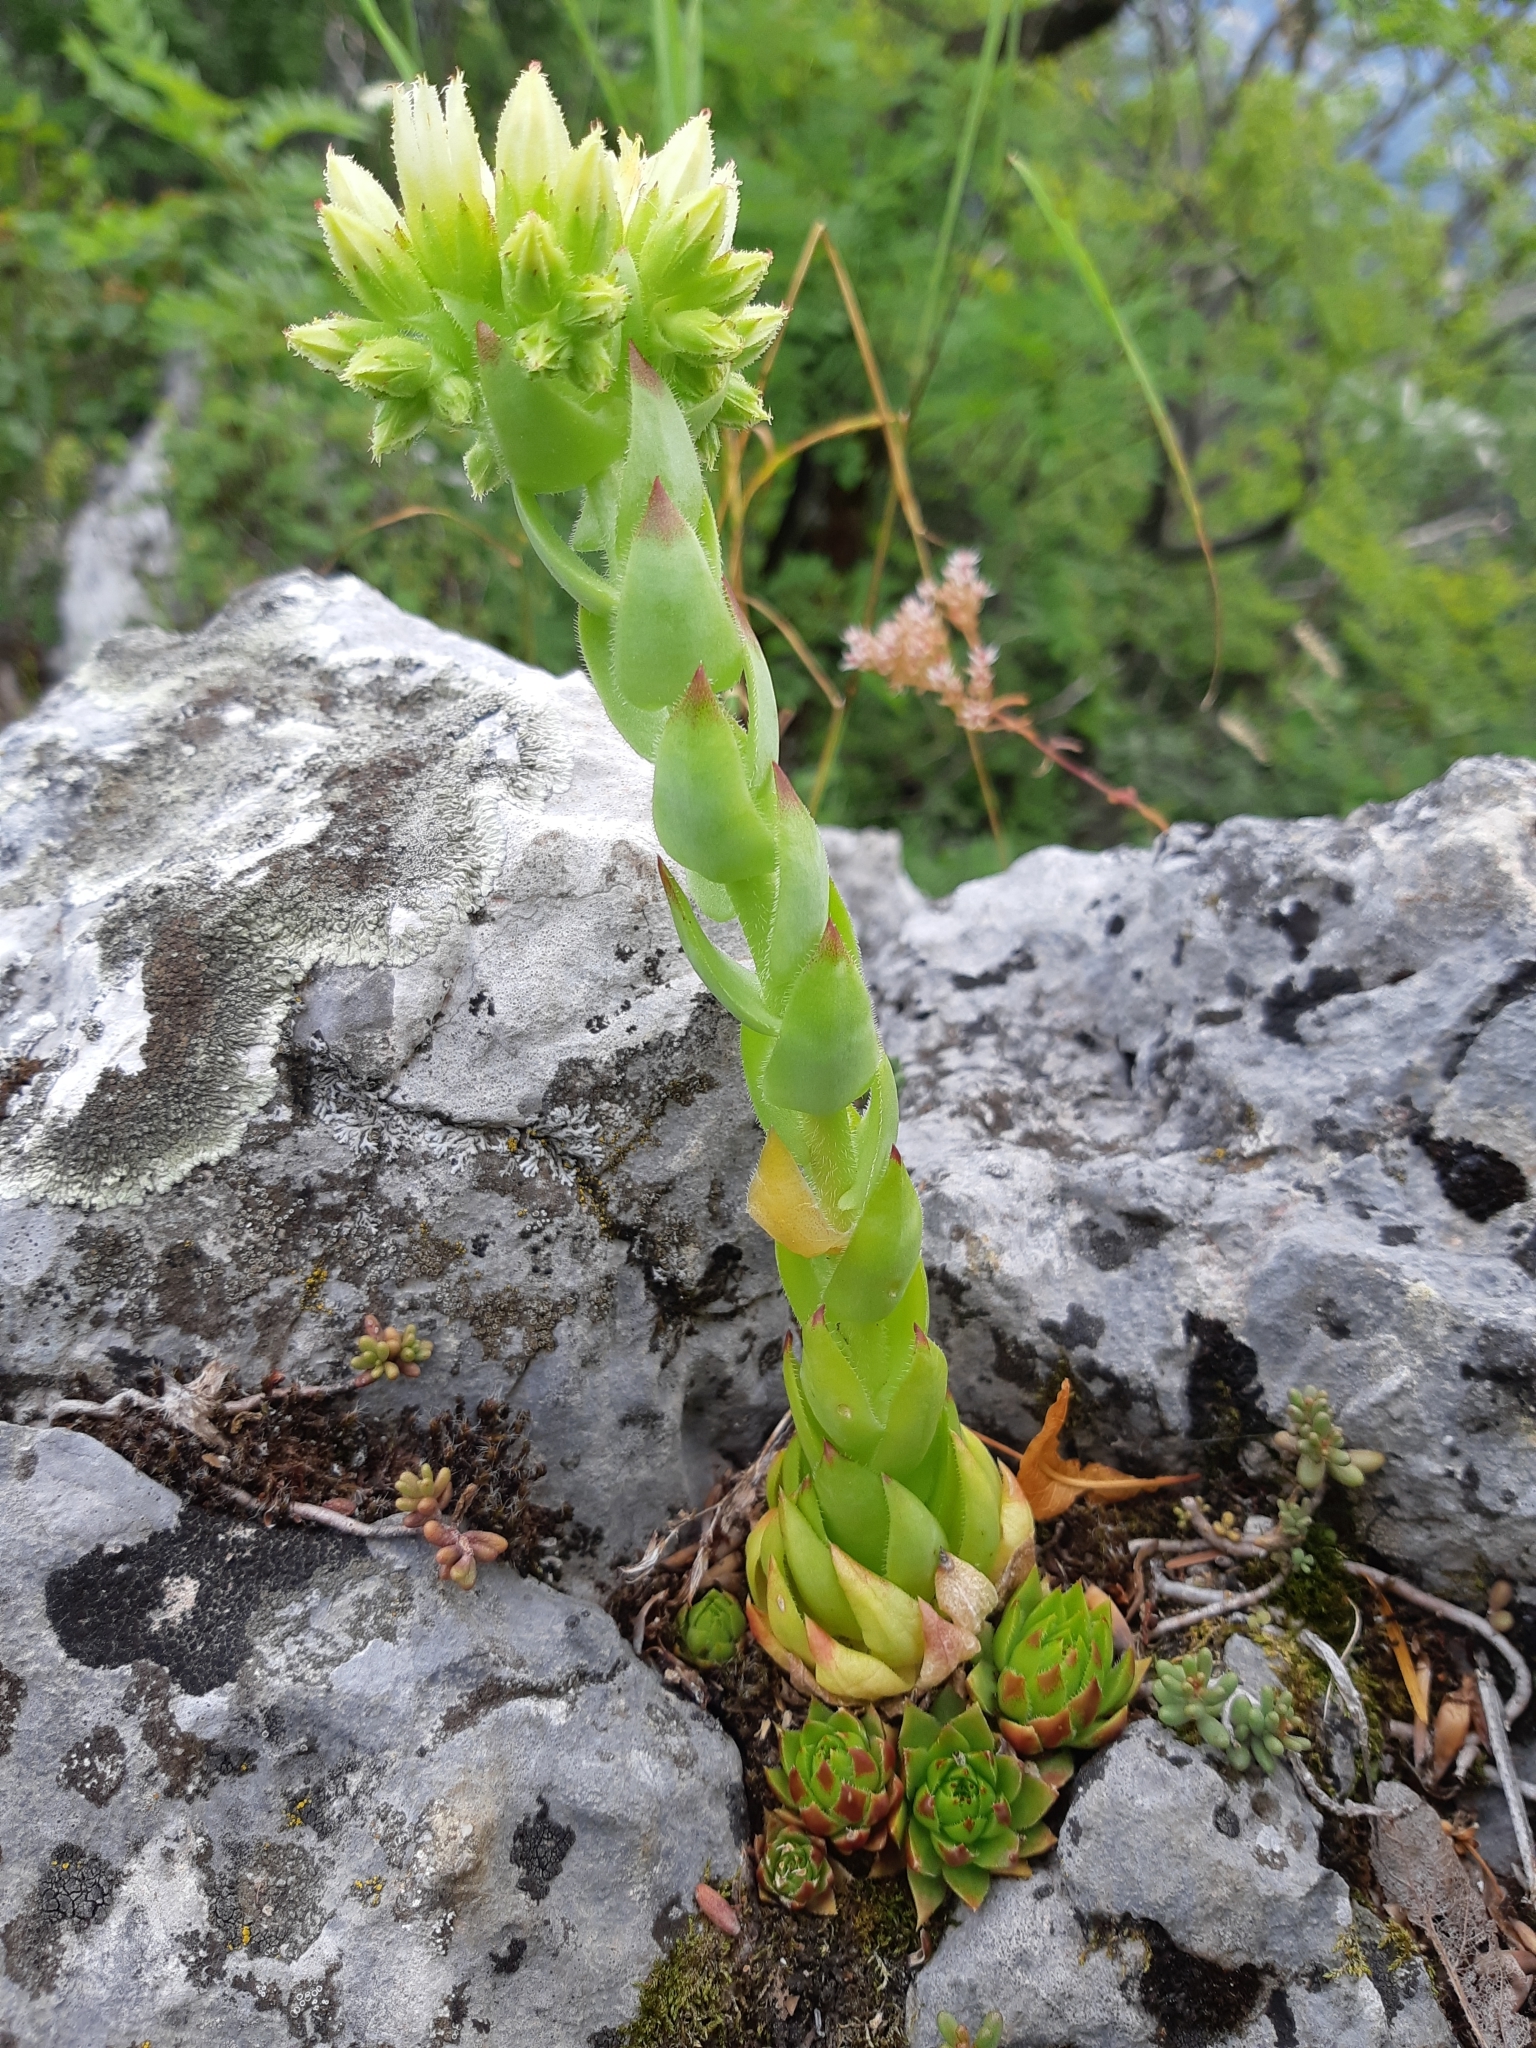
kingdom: Plantae
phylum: Tracheophyta
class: Magnoliopsida
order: Saxifragales
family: Crassulaceae
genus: Sempervivum
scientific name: Sempervivum globiferum
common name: Rolling hen-and-chicks
